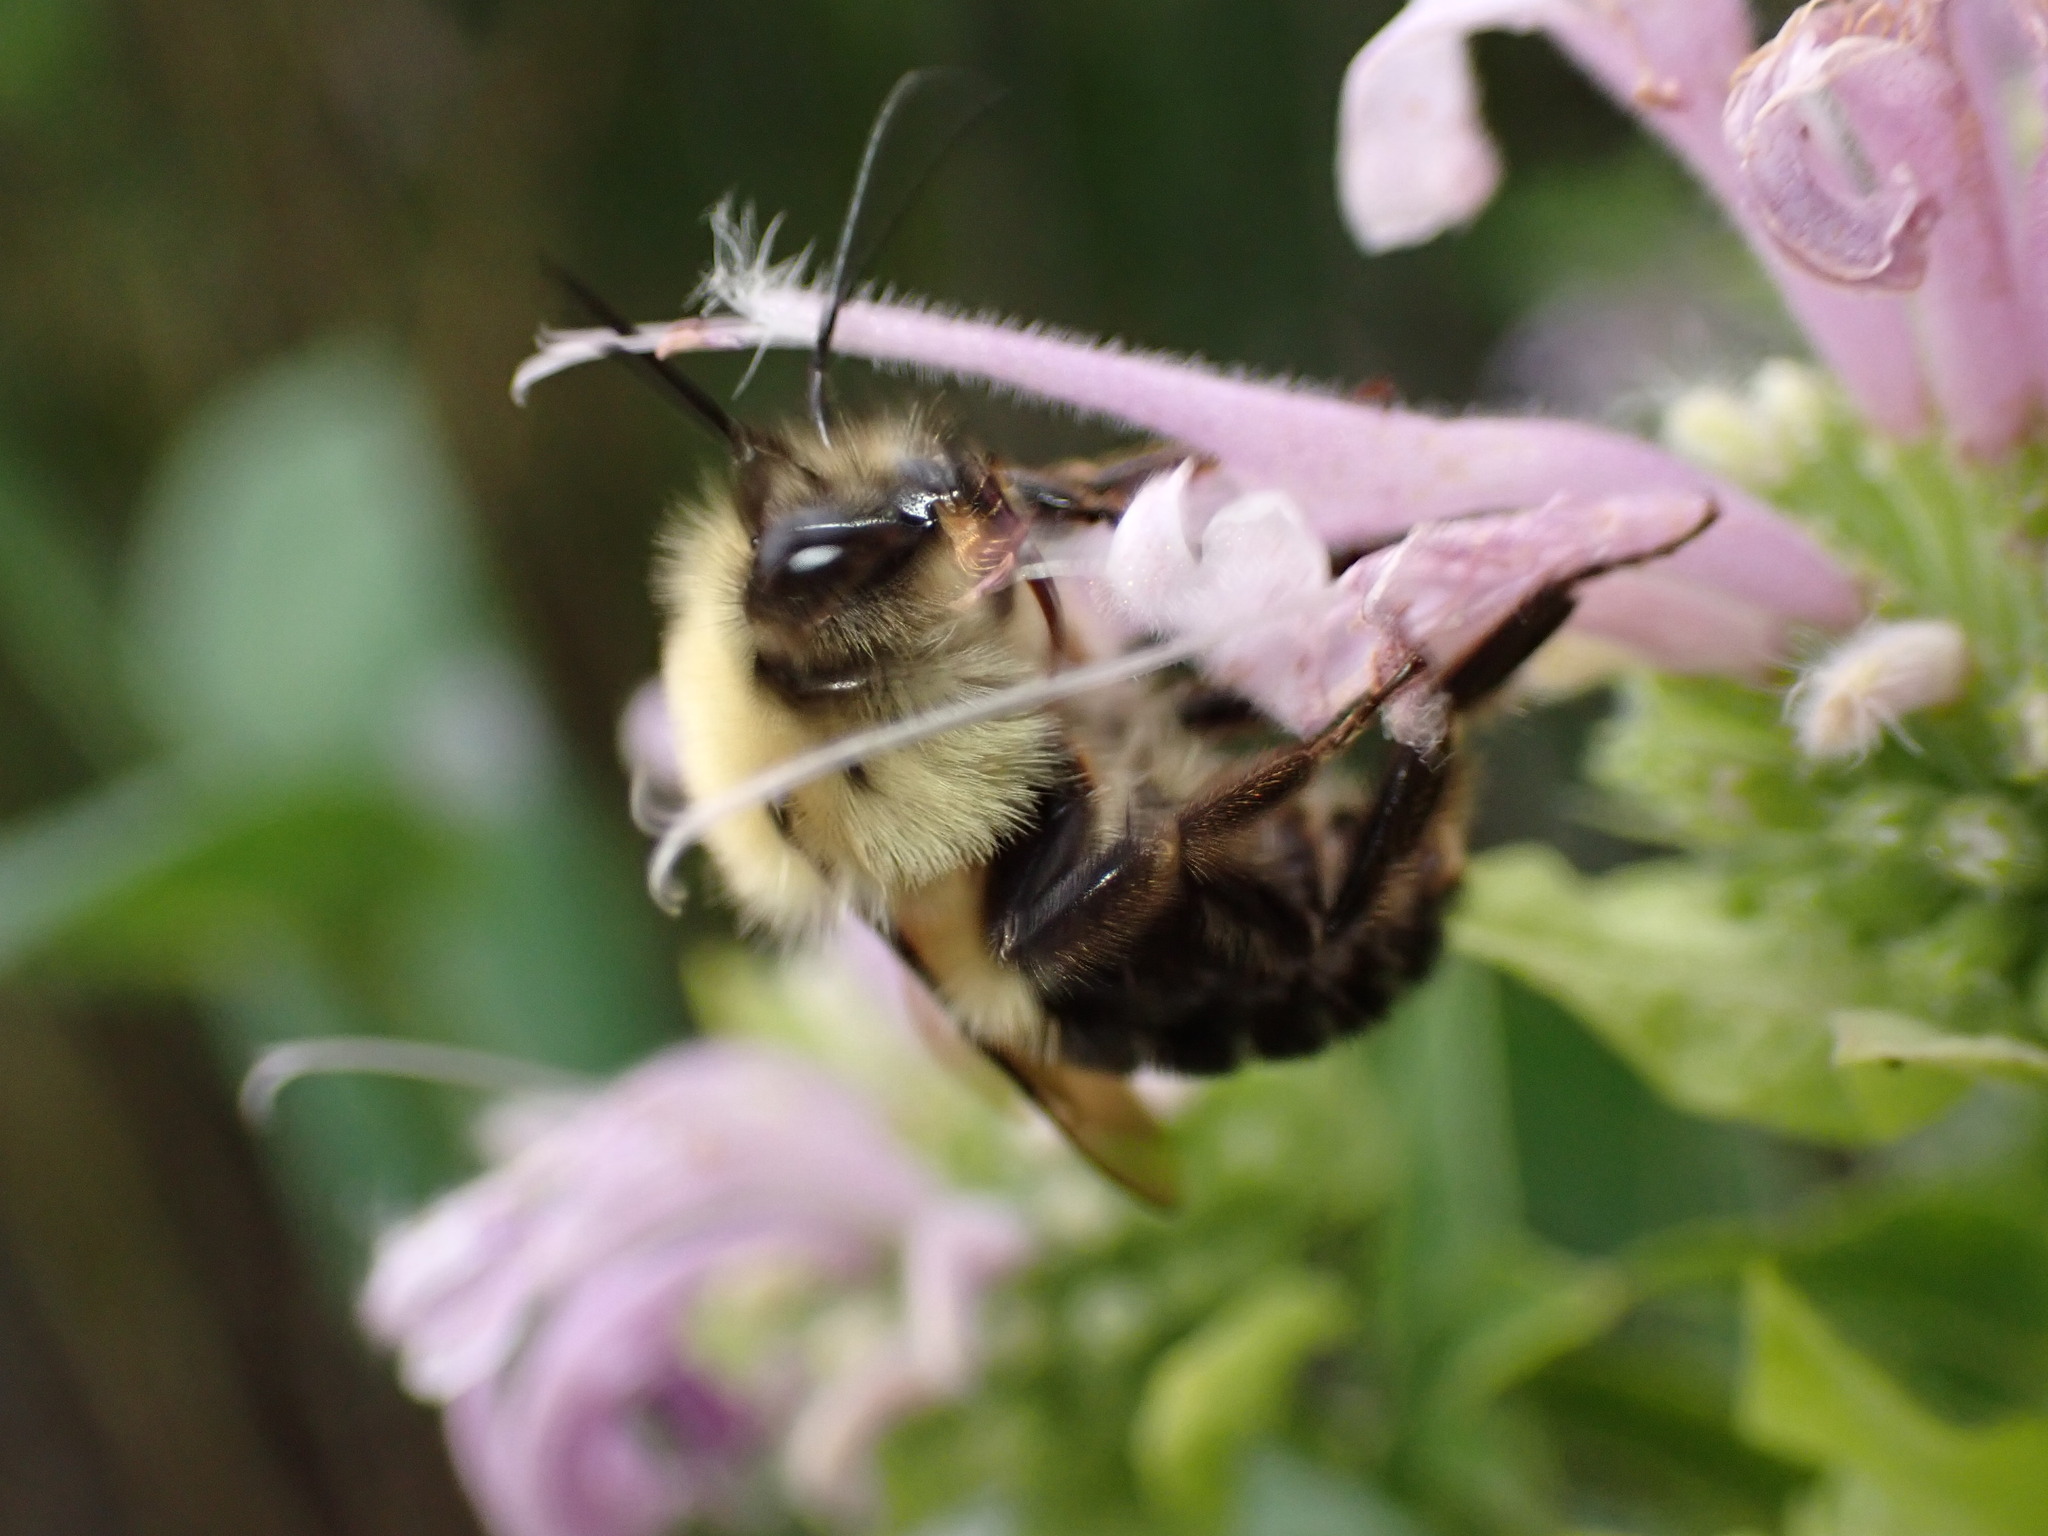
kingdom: Animalia
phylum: Arthropoda
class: Insecta
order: Hymenoptera
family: Apidae
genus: Bombus
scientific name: Bombus bimaculatus
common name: Two-spotted bumble bee
